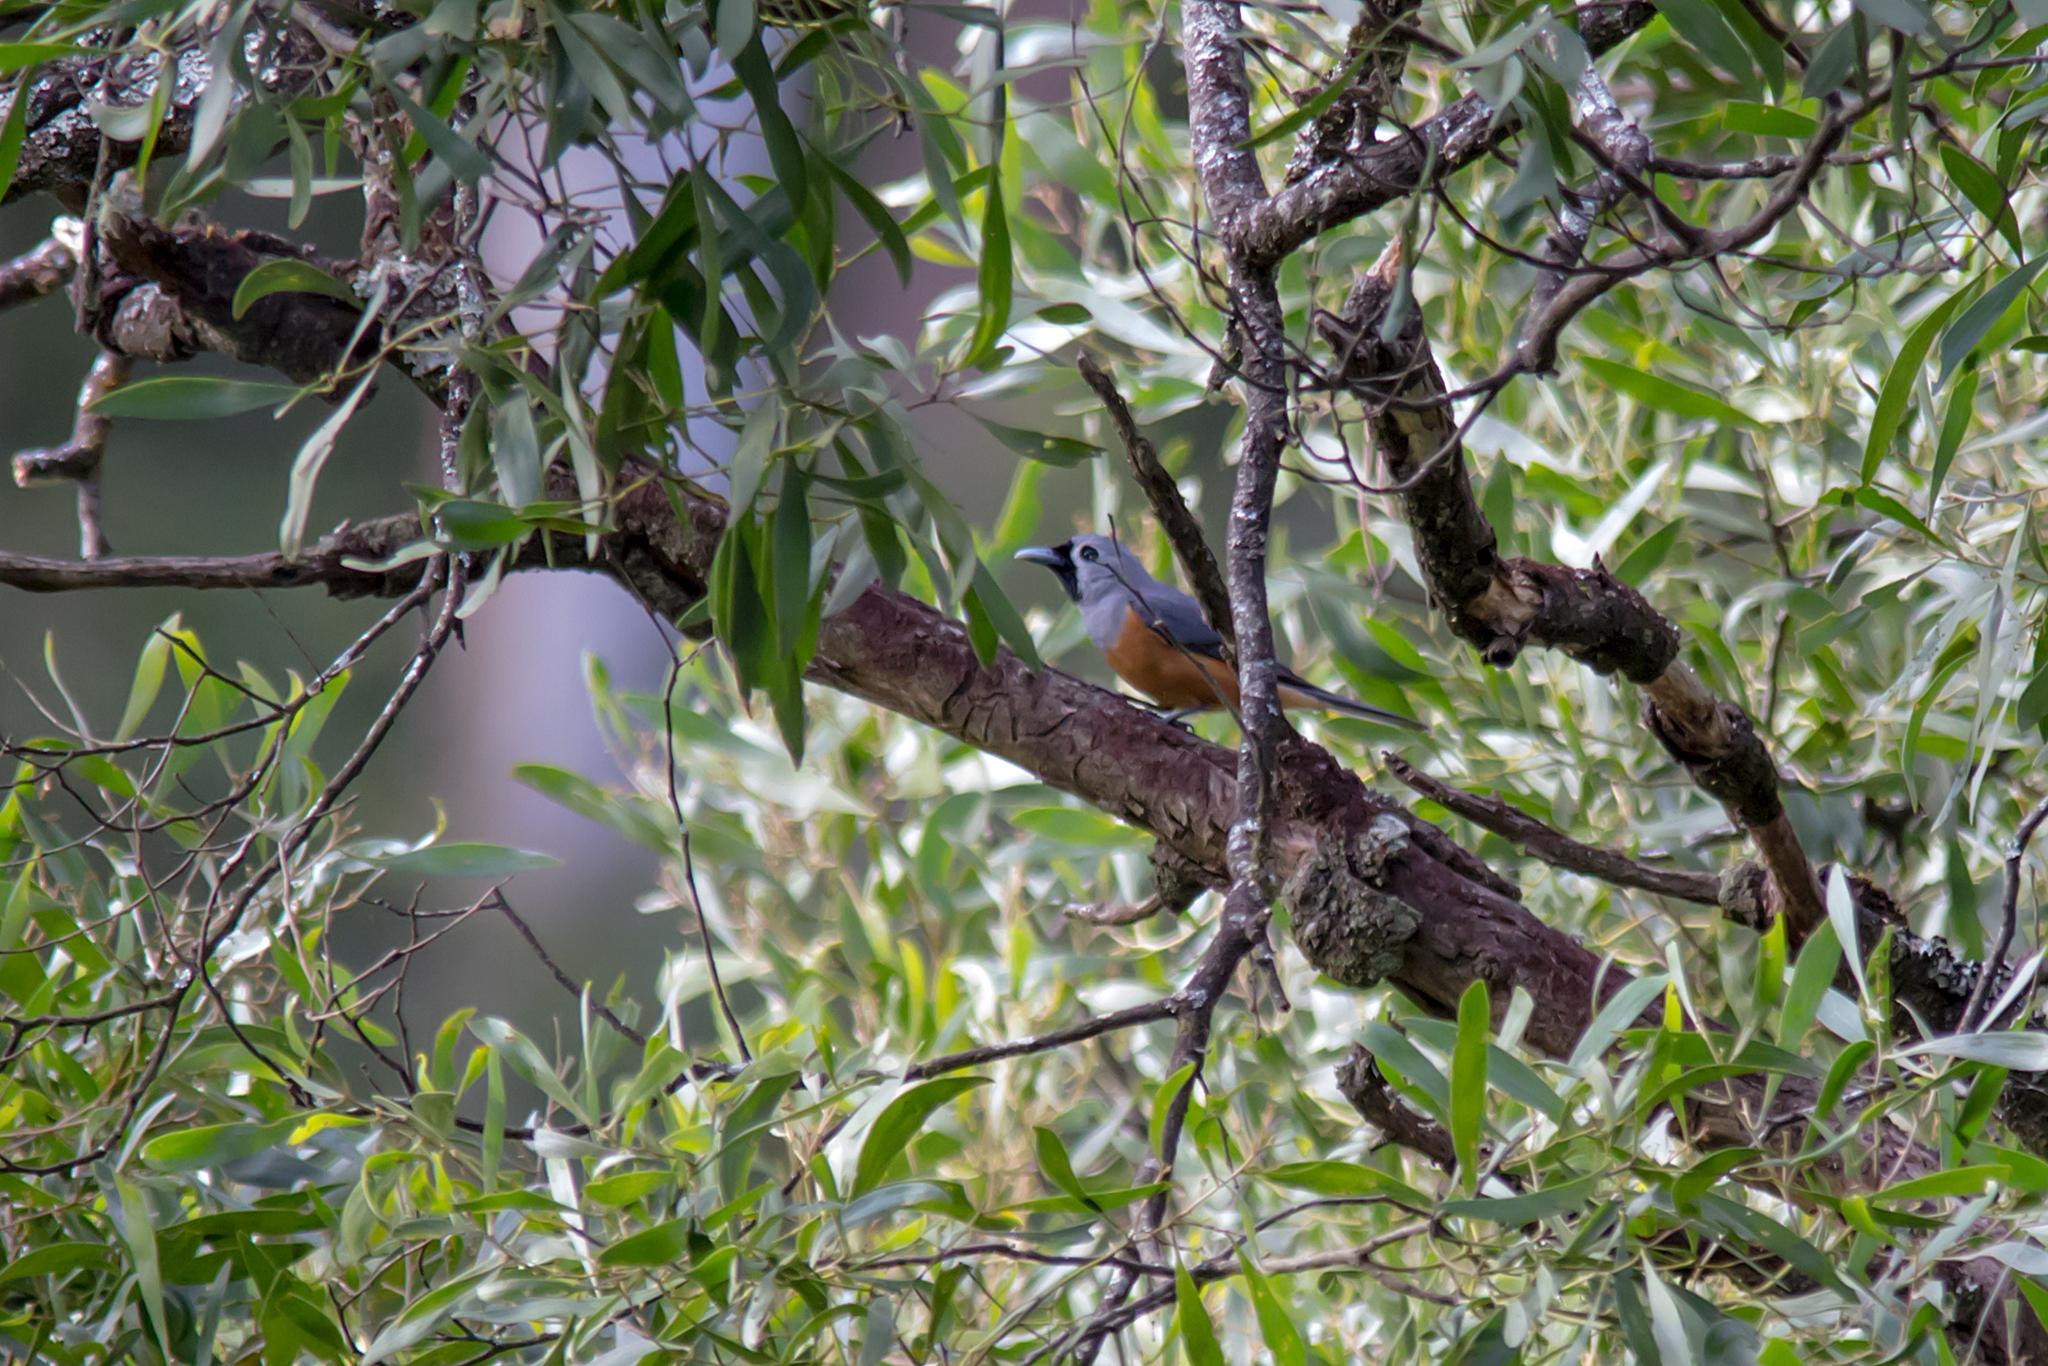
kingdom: Animalia
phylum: Chordata
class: Aves
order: Passeriformes
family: Monarchidae
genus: Monarcha
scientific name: Monarcha melanopsis
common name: Black-faced monarch
